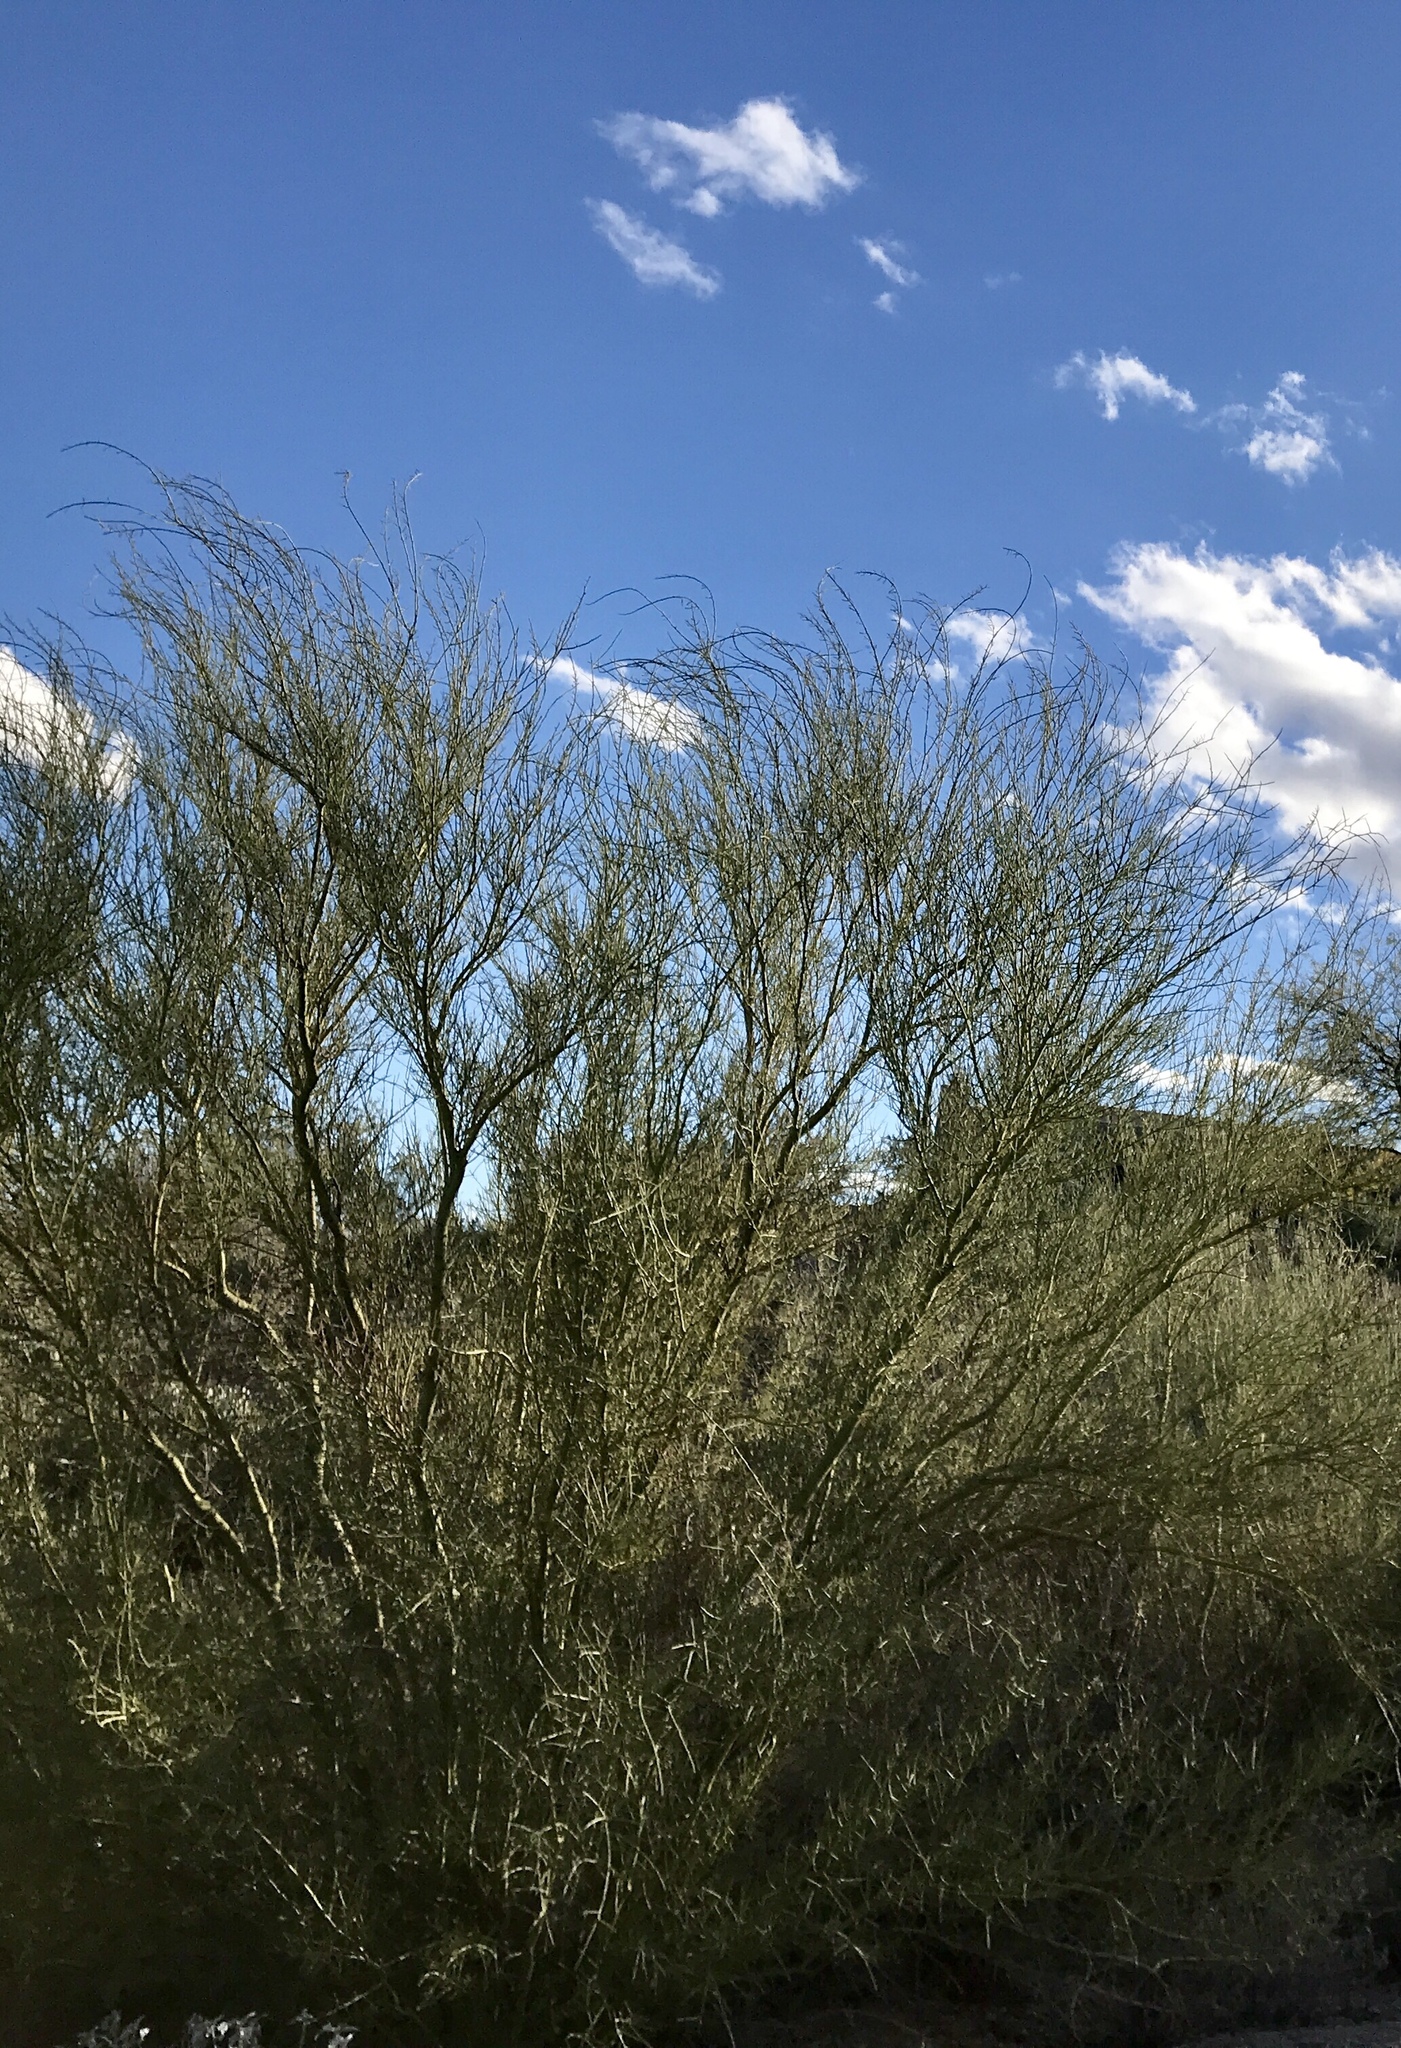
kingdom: Plantae
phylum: Tracheophyta
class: Magnoliopsida
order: Fabales
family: Fabaceae
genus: Parkinsonia
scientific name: Parkinsonia microphylla
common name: Yellow paloverde
